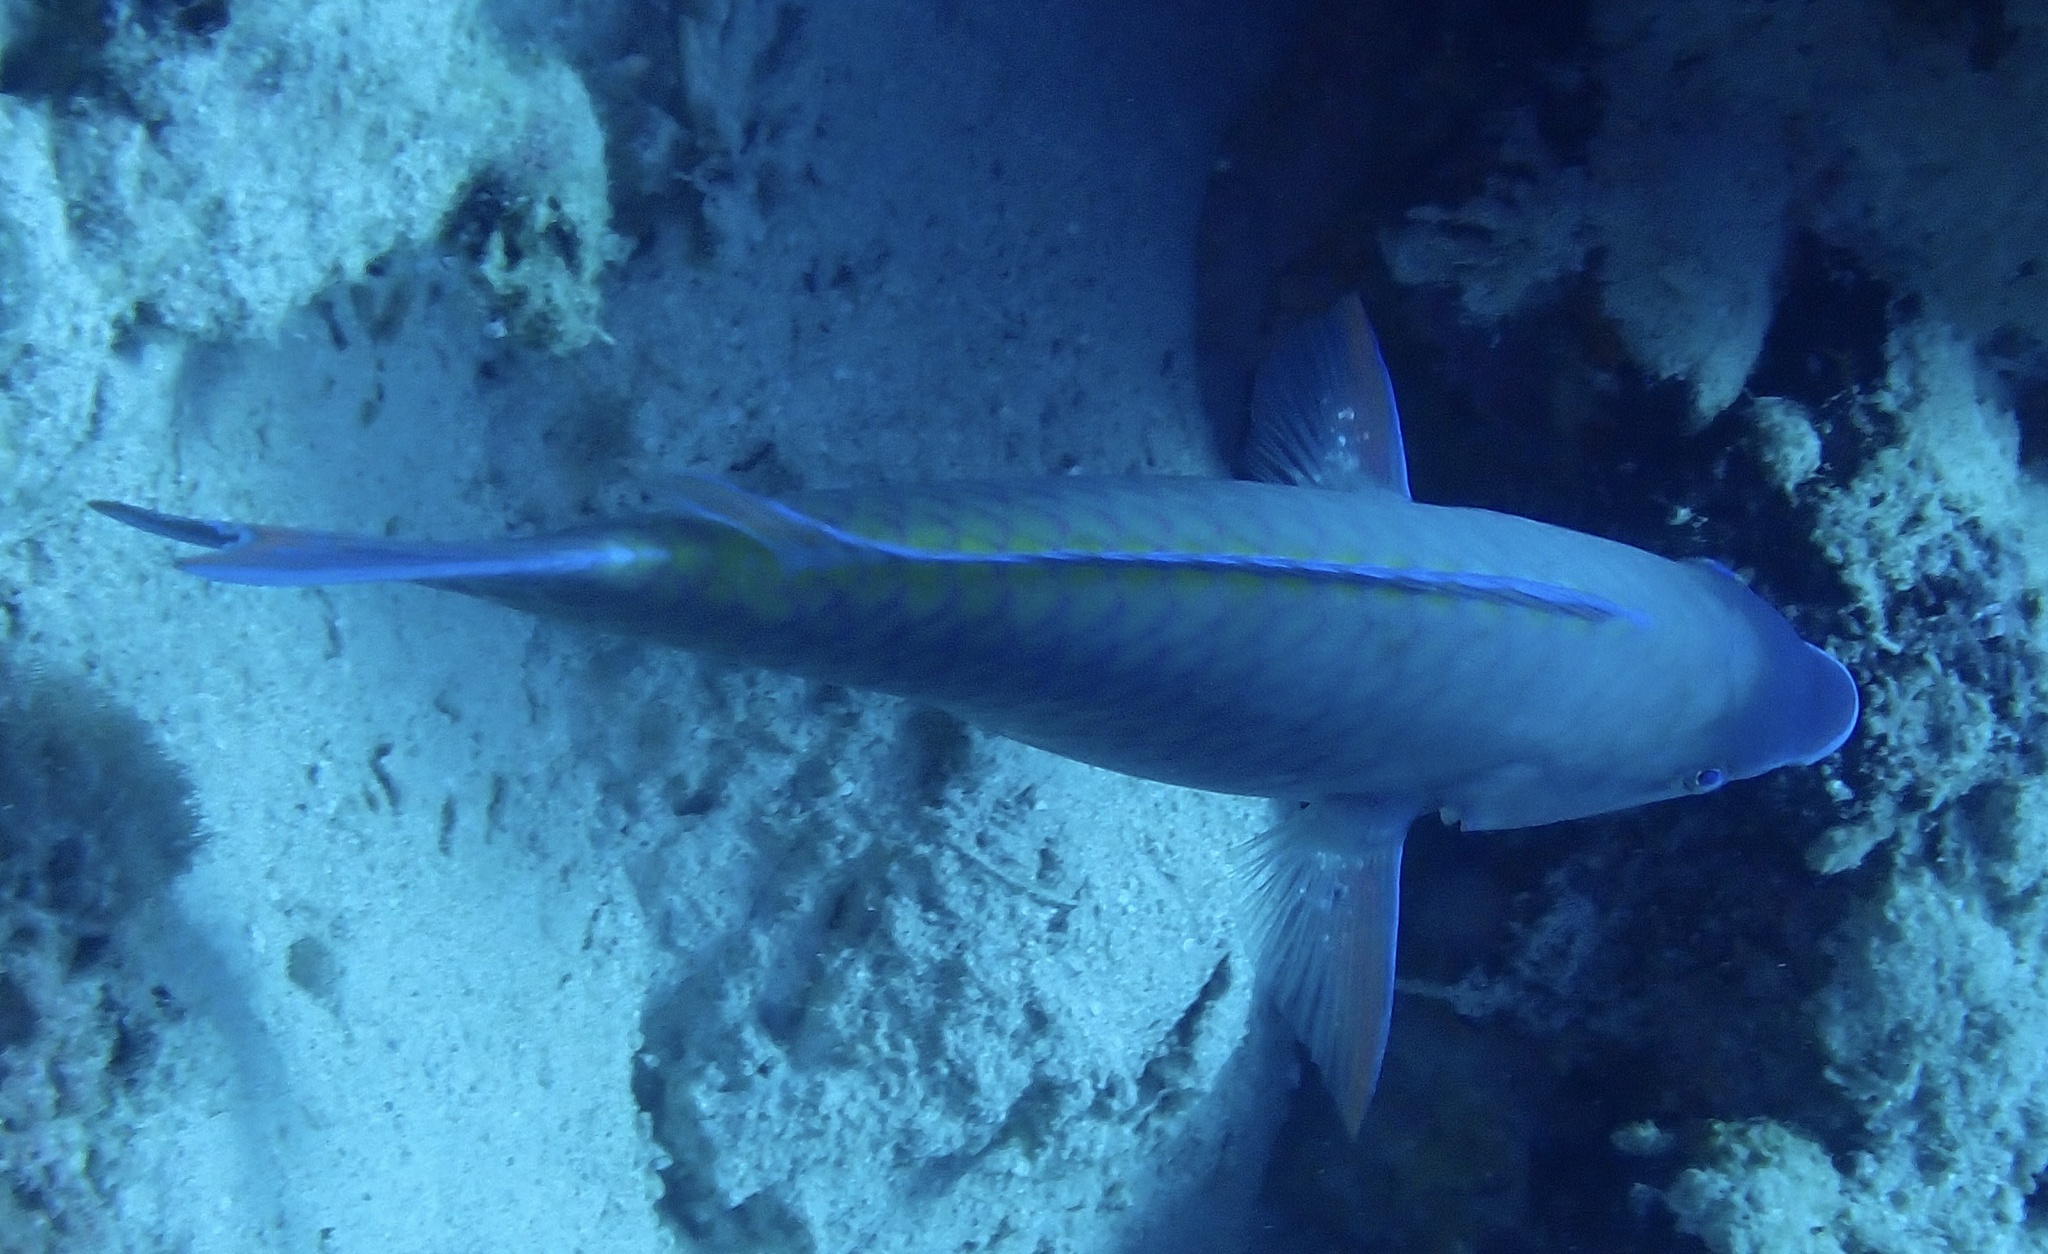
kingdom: Animalia
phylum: Chordata
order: Perciformes
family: Scaridae
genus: Scarus
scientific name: Scarus psittacus
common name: Palenose parrotfish
